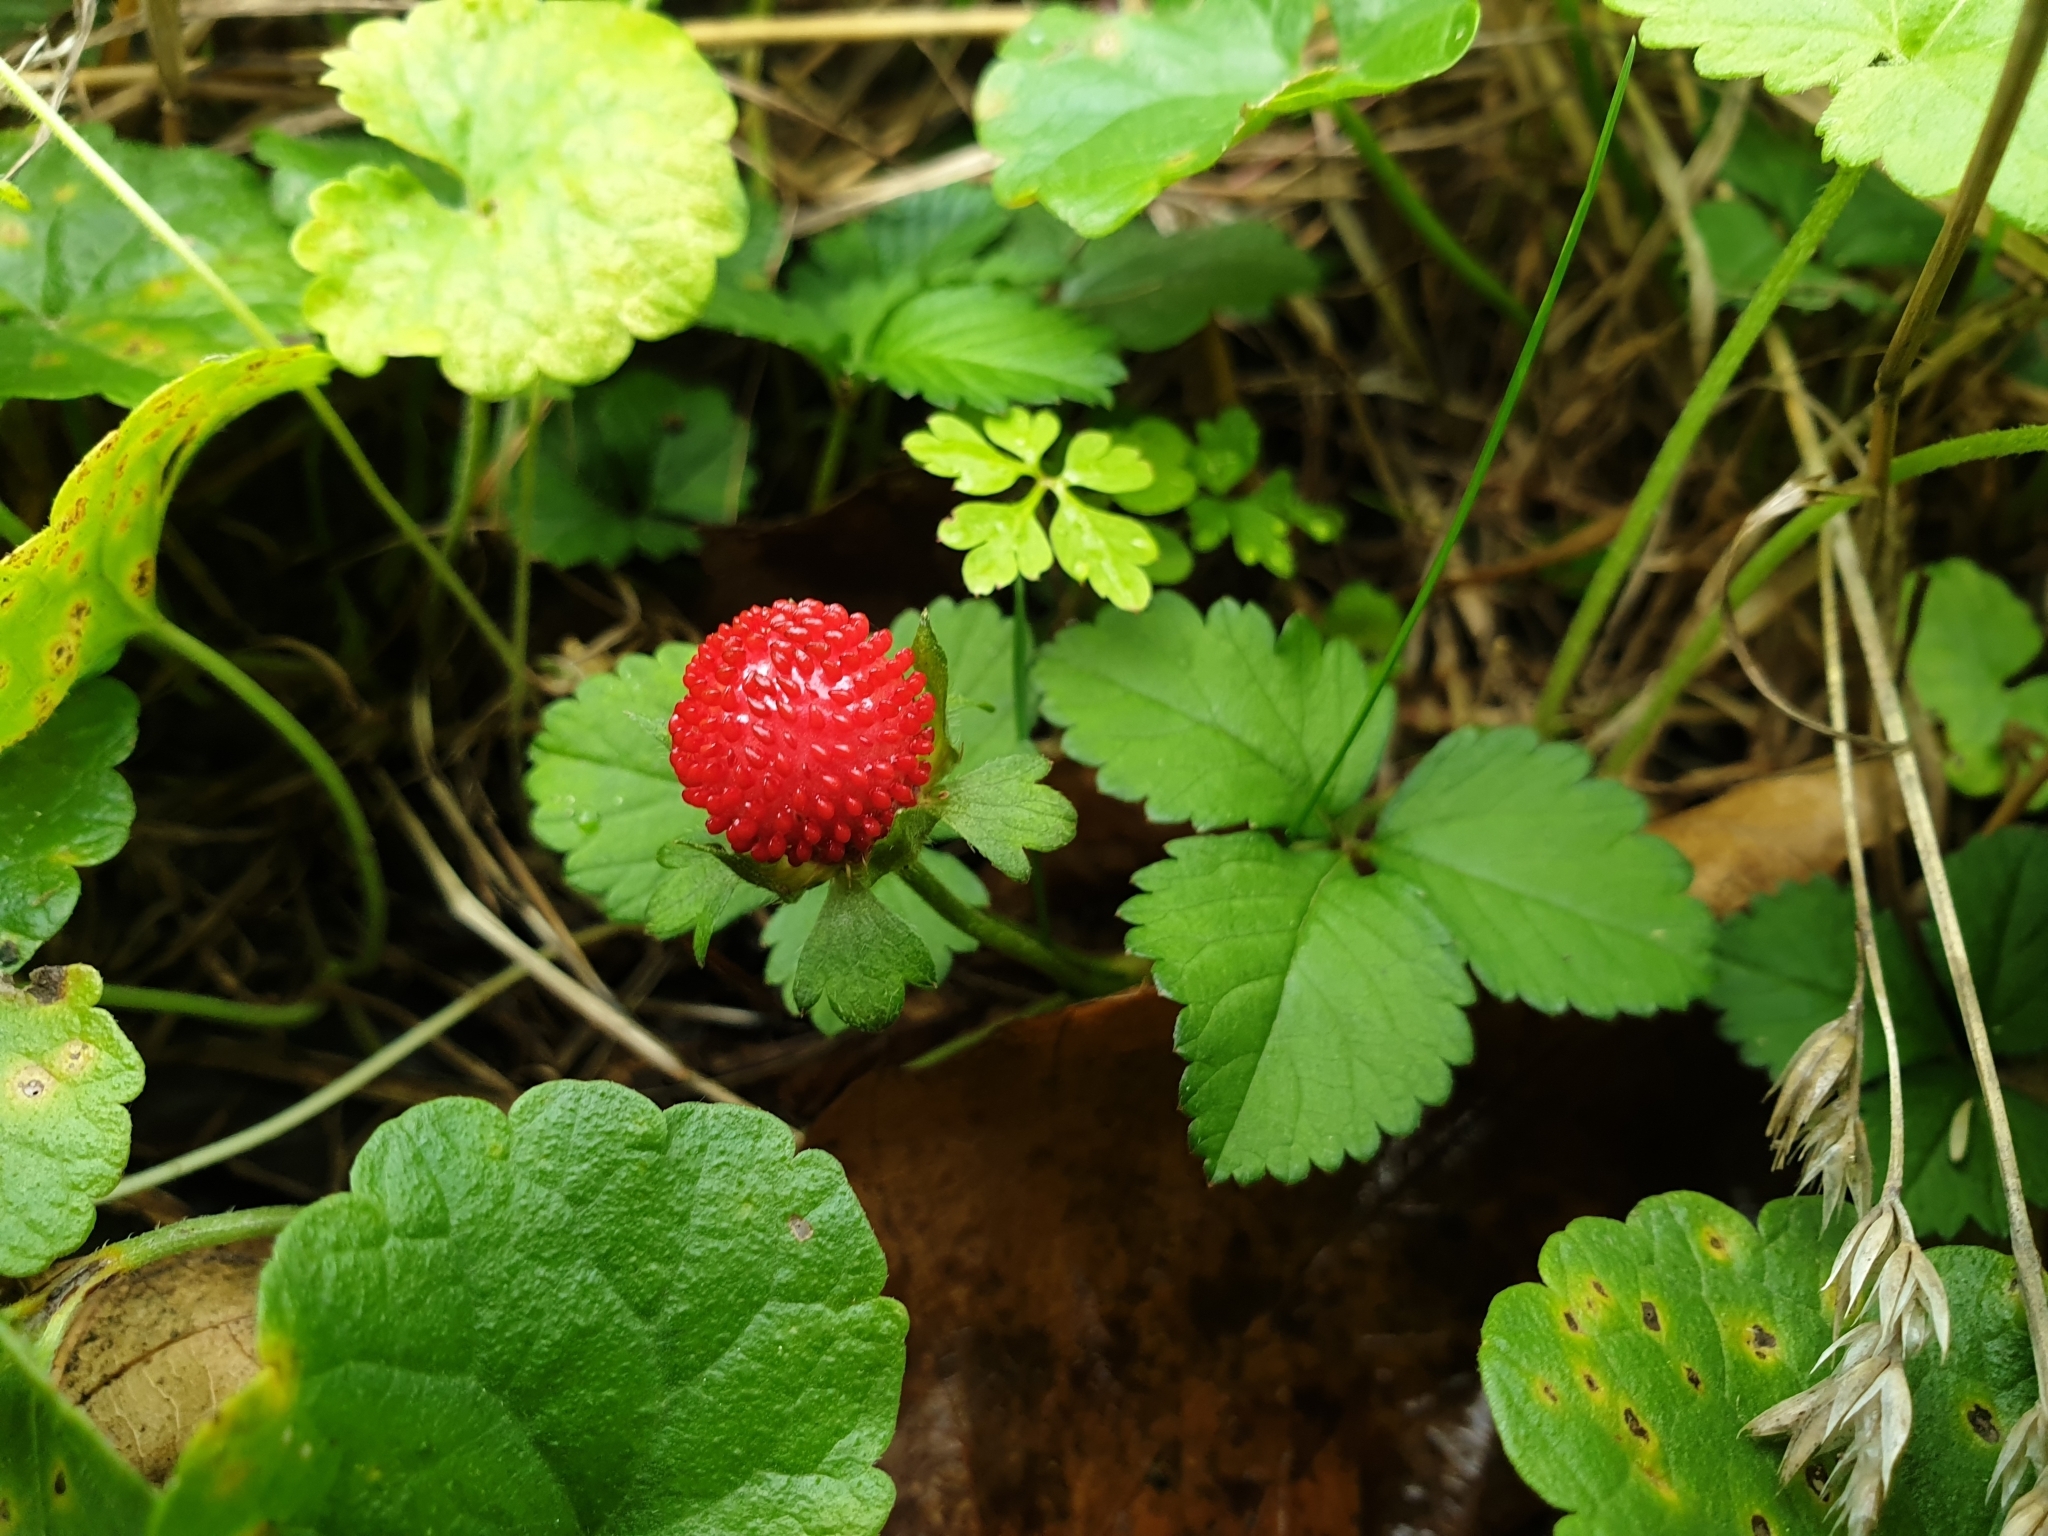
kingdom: Plantae
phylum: Tracheophyta
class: Magnoliopsida
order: Rosales
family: Rosaceae
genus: Potentilla
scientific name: Potentilla indica
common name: Yellow-flowered strawberry
